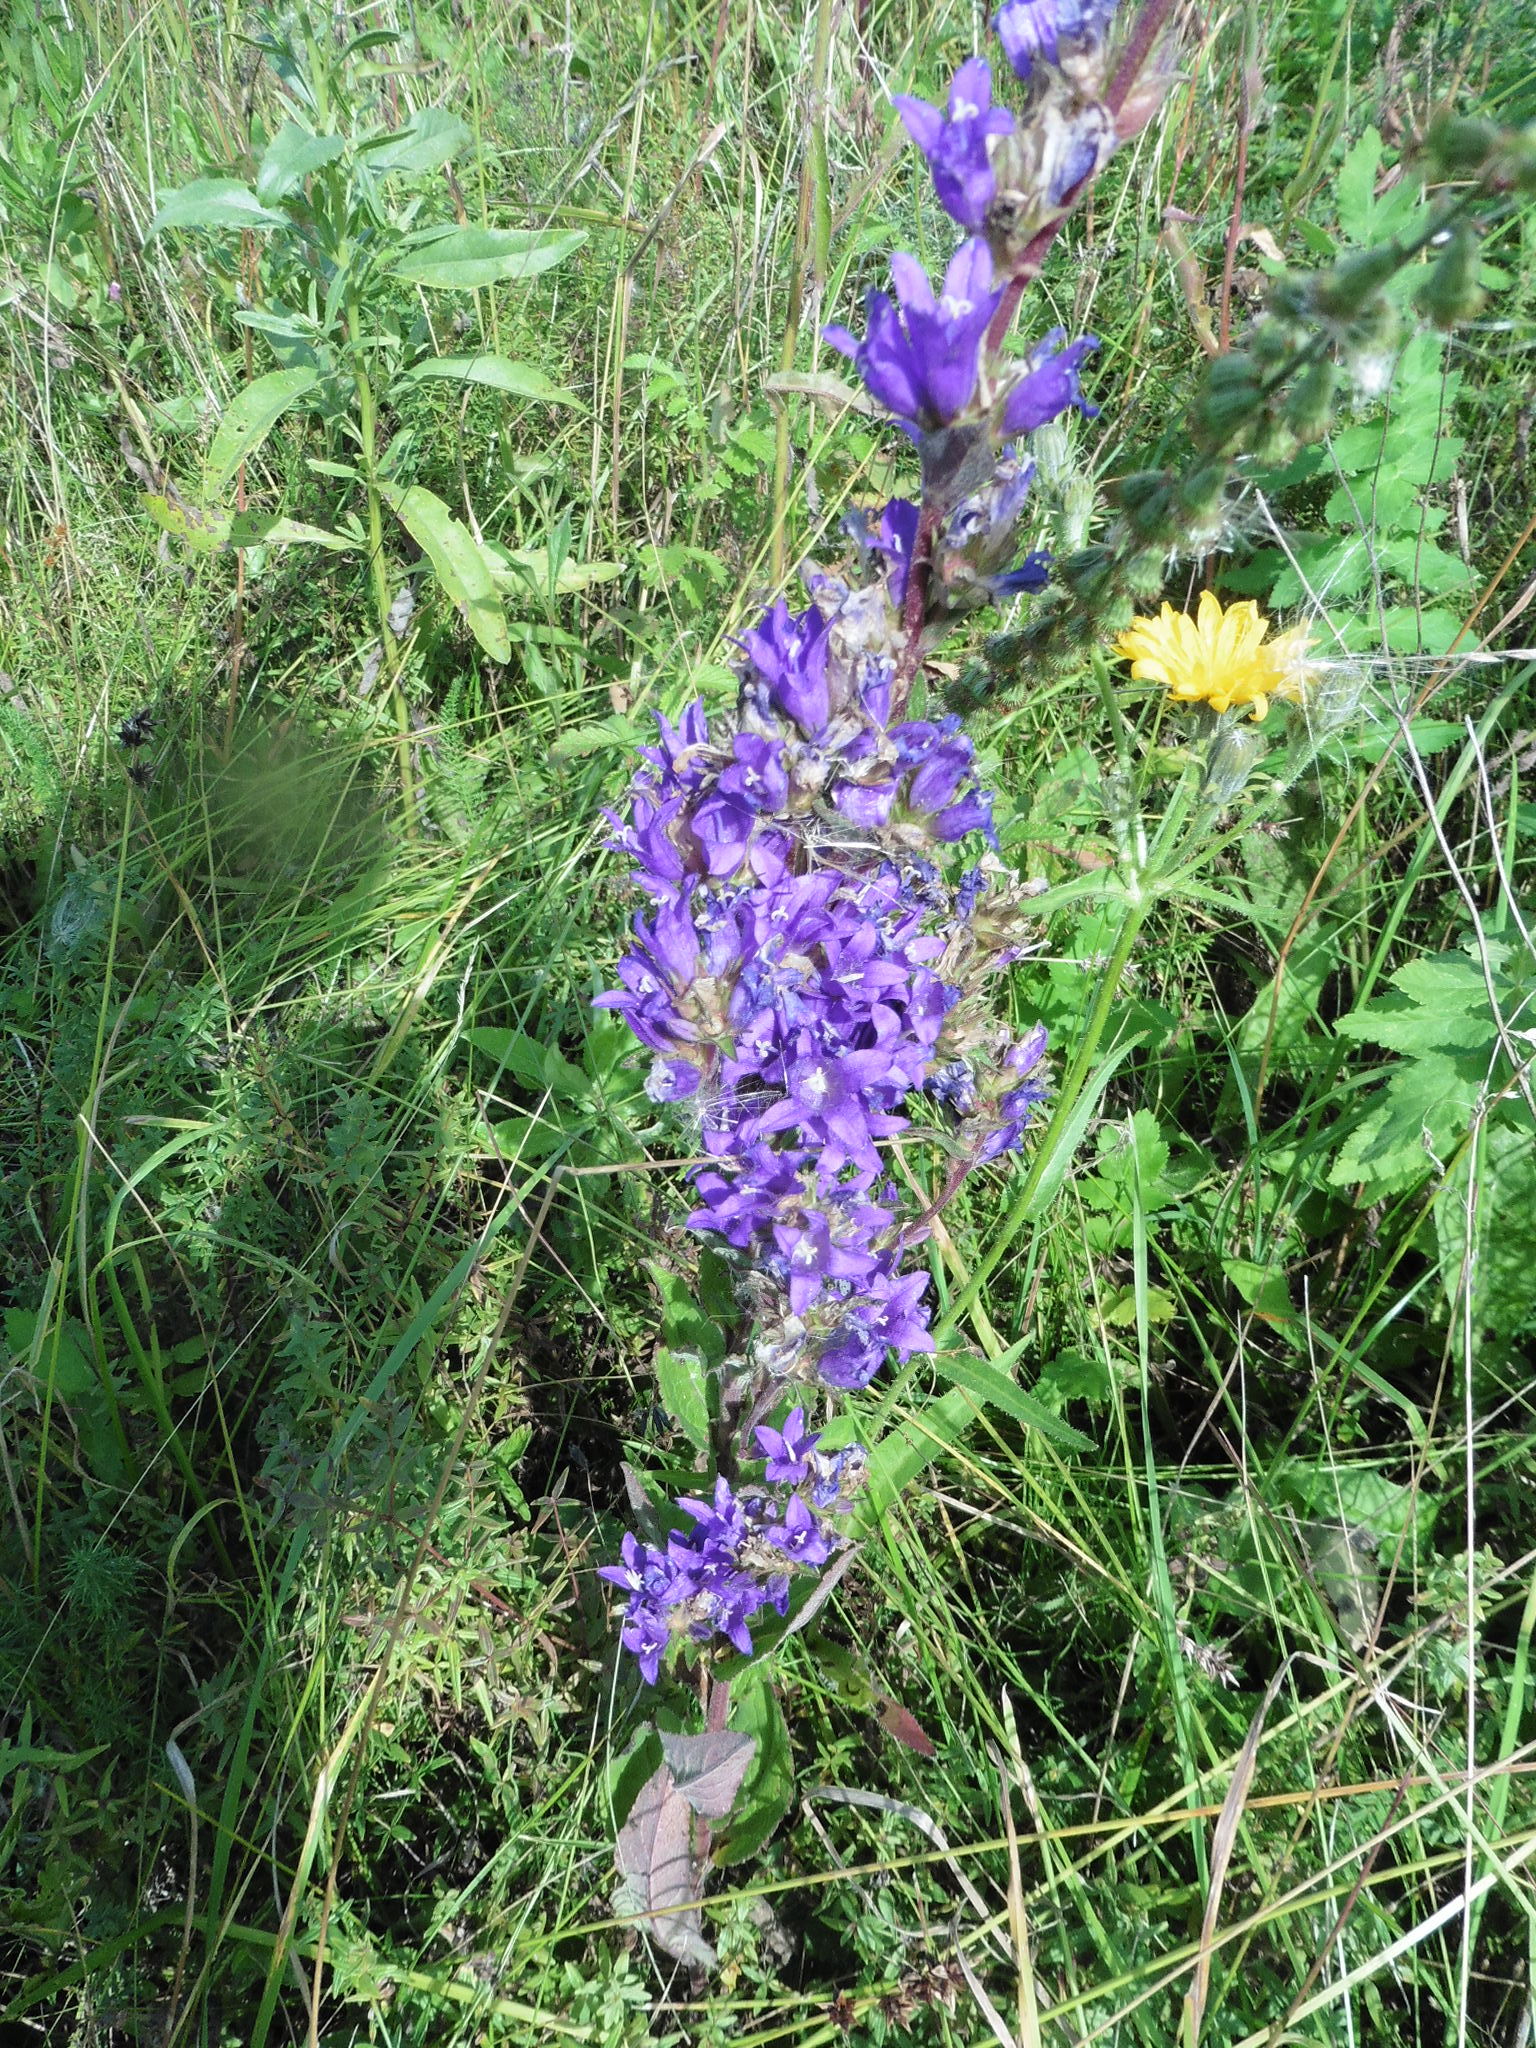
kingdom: Plantae
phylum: Tracheophyta
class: Magnoliopsida
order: Asterales
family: Campanulaceae
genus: Campanula
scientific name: Campanula glomerata
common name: Clustered bellflower
